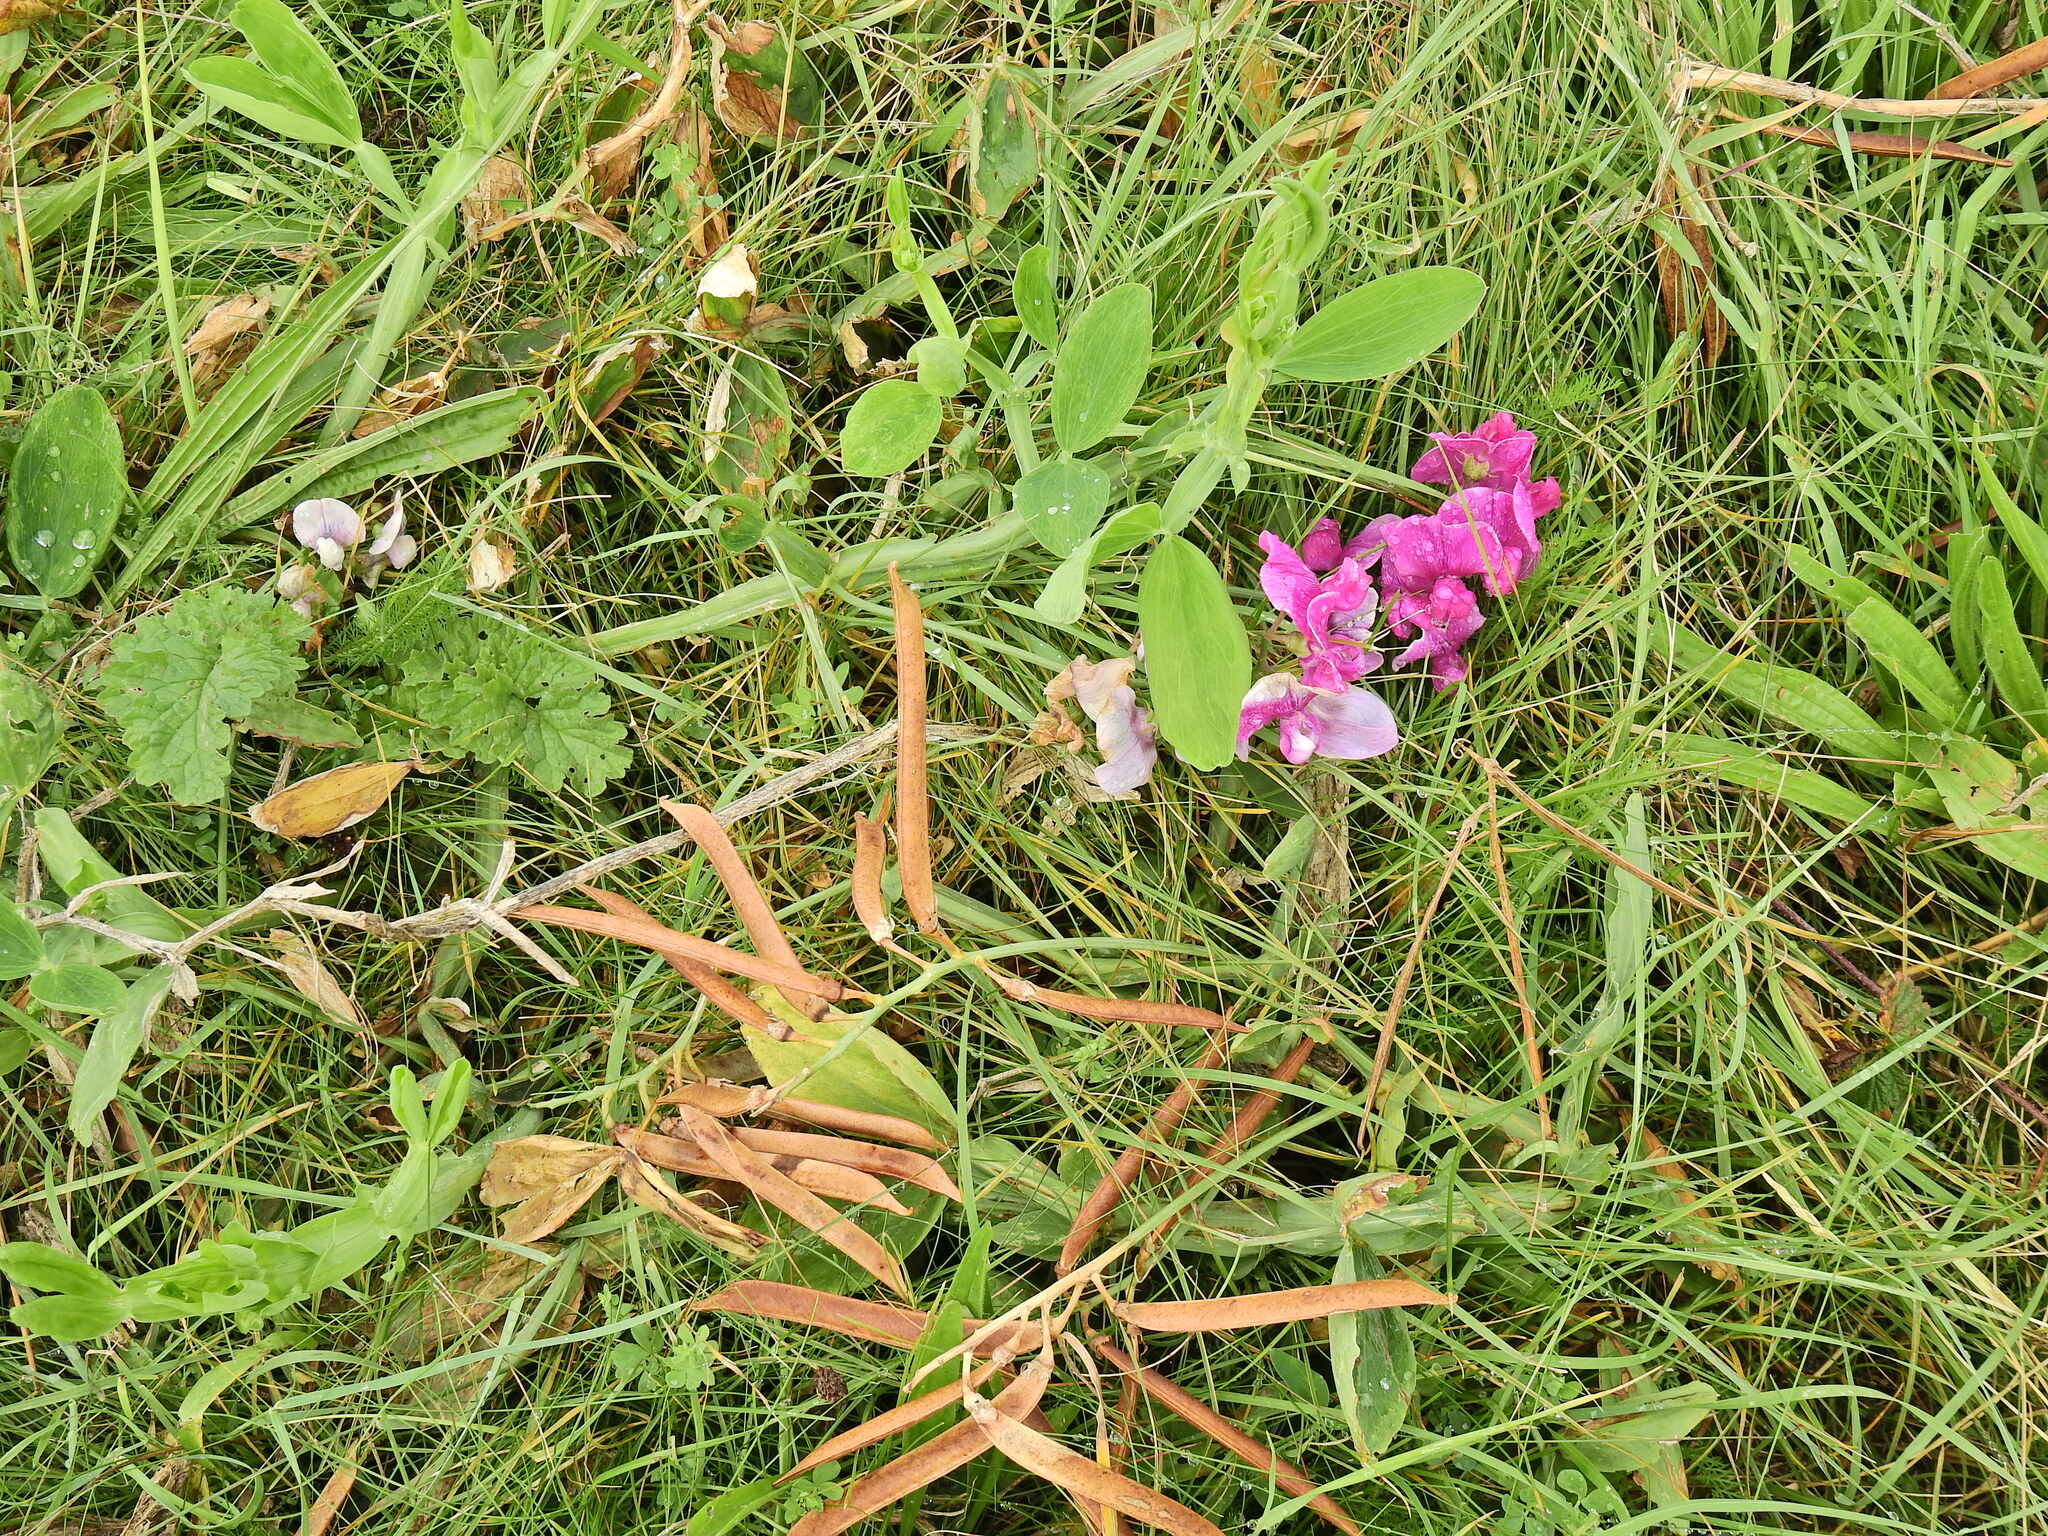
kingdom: Plantae
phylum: Tracheophyta
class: Magnoliopsida
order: Fabales
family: Fabaceae
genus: Lathyrus
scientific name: Lathyrus latifolius
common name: Perennial pea
